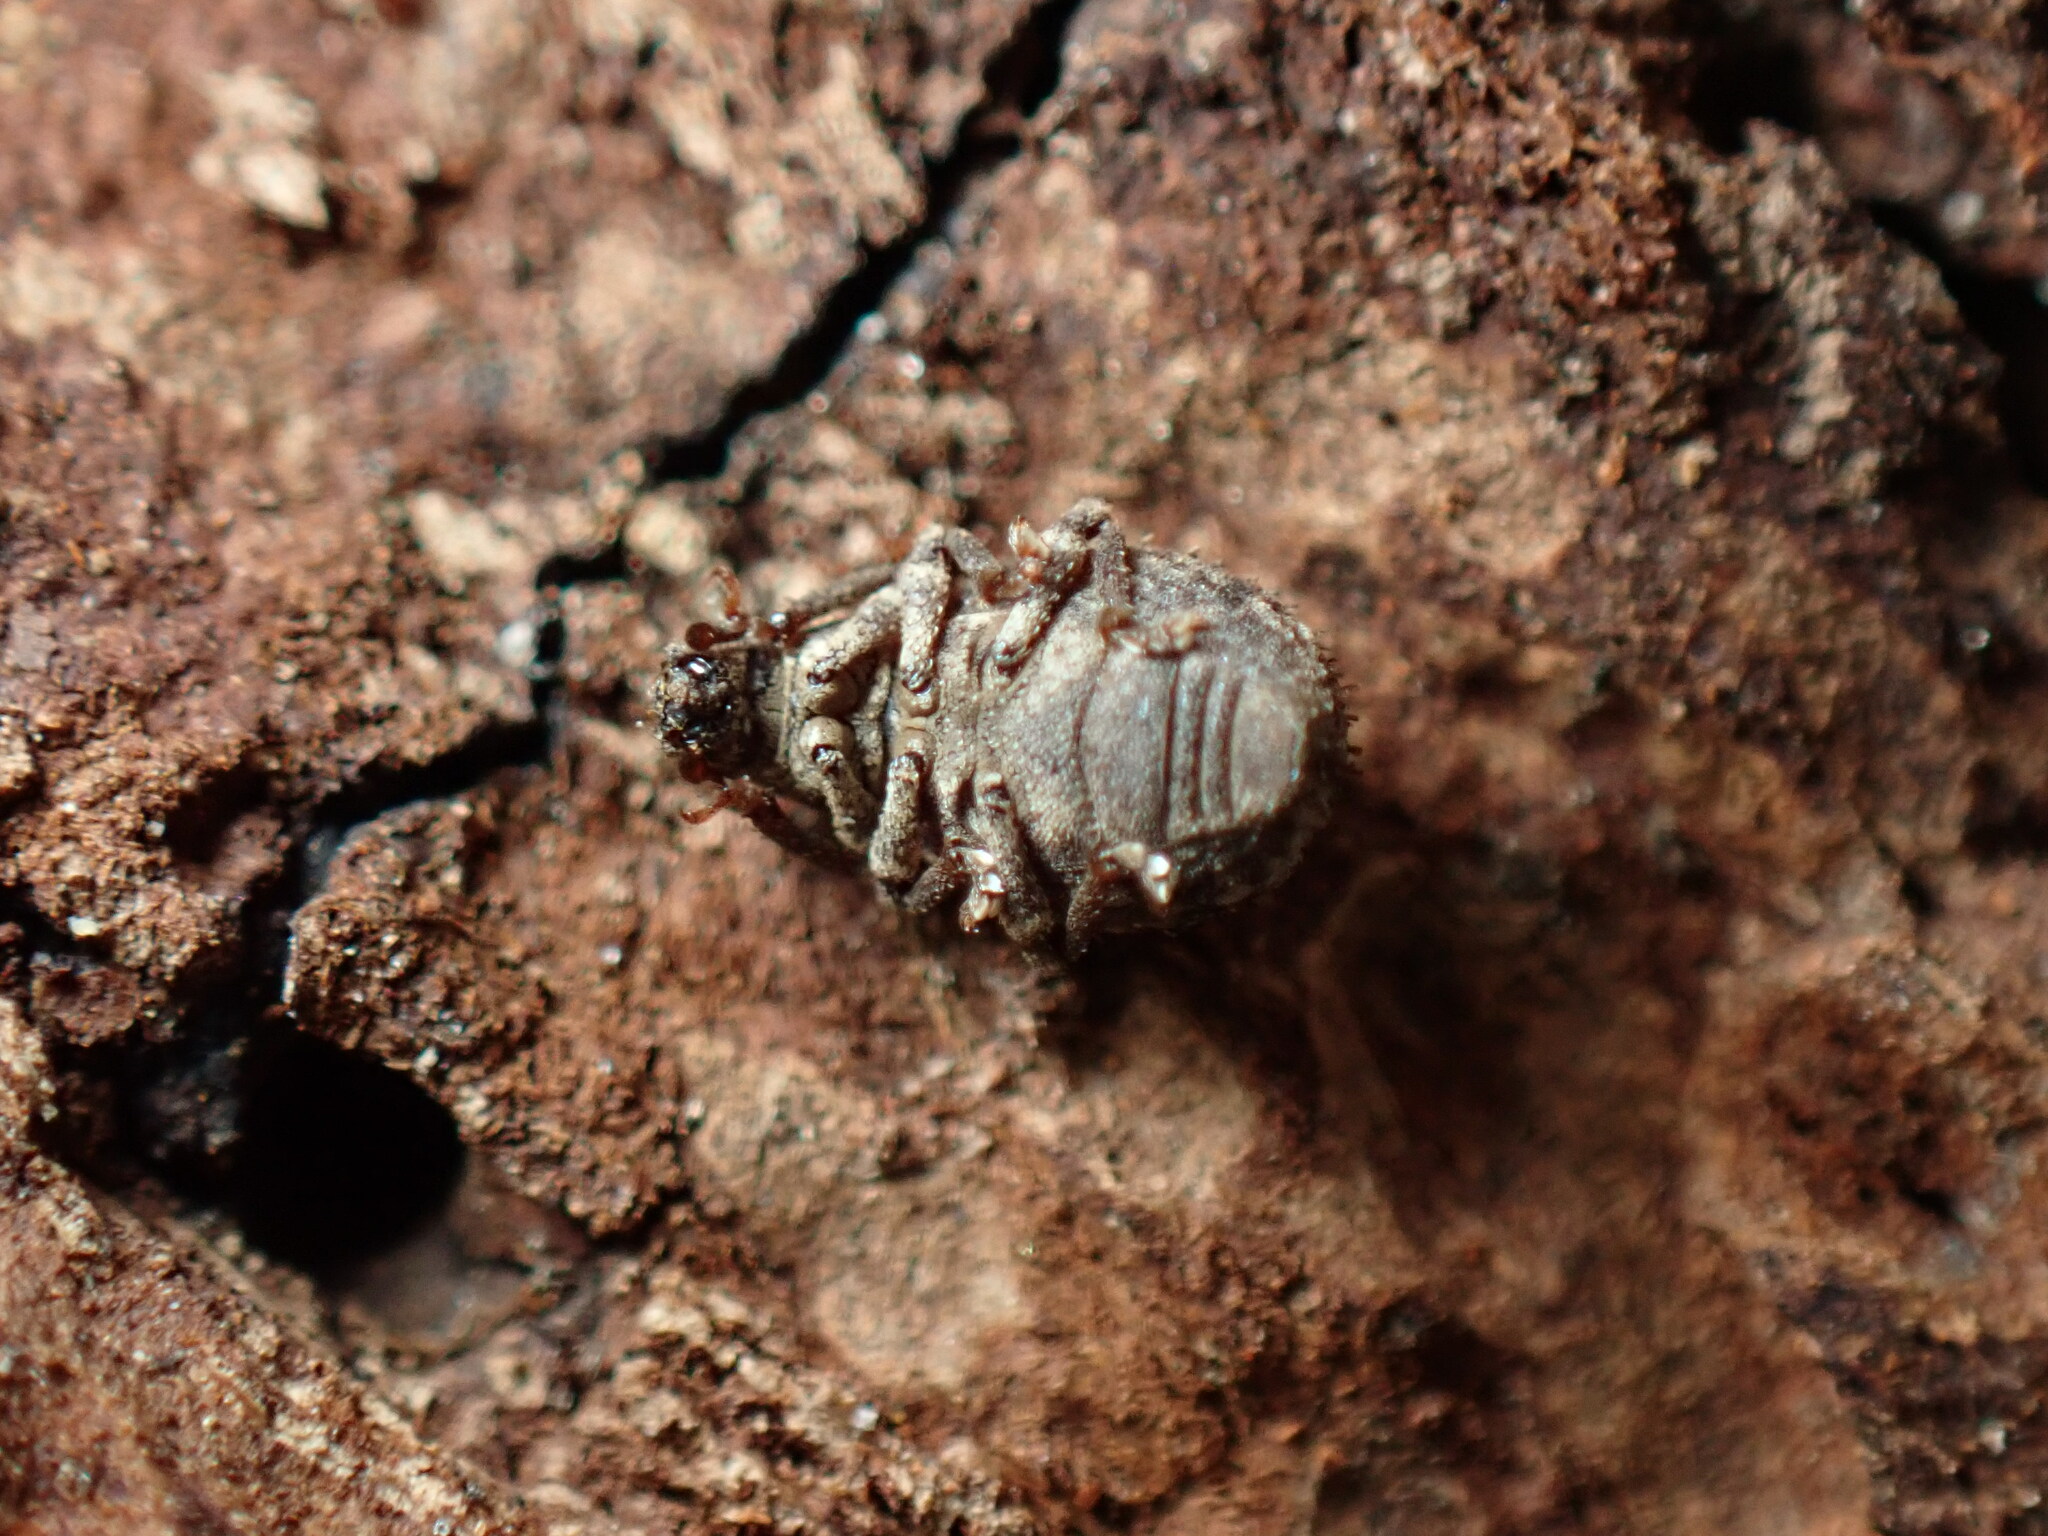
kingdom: Animalia
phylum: Arthropoda
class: Insecta
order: Coleoptera
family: Curculionidae
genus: Myosides
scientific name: Myosides seriehispidus
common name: Broadnosed weevil
